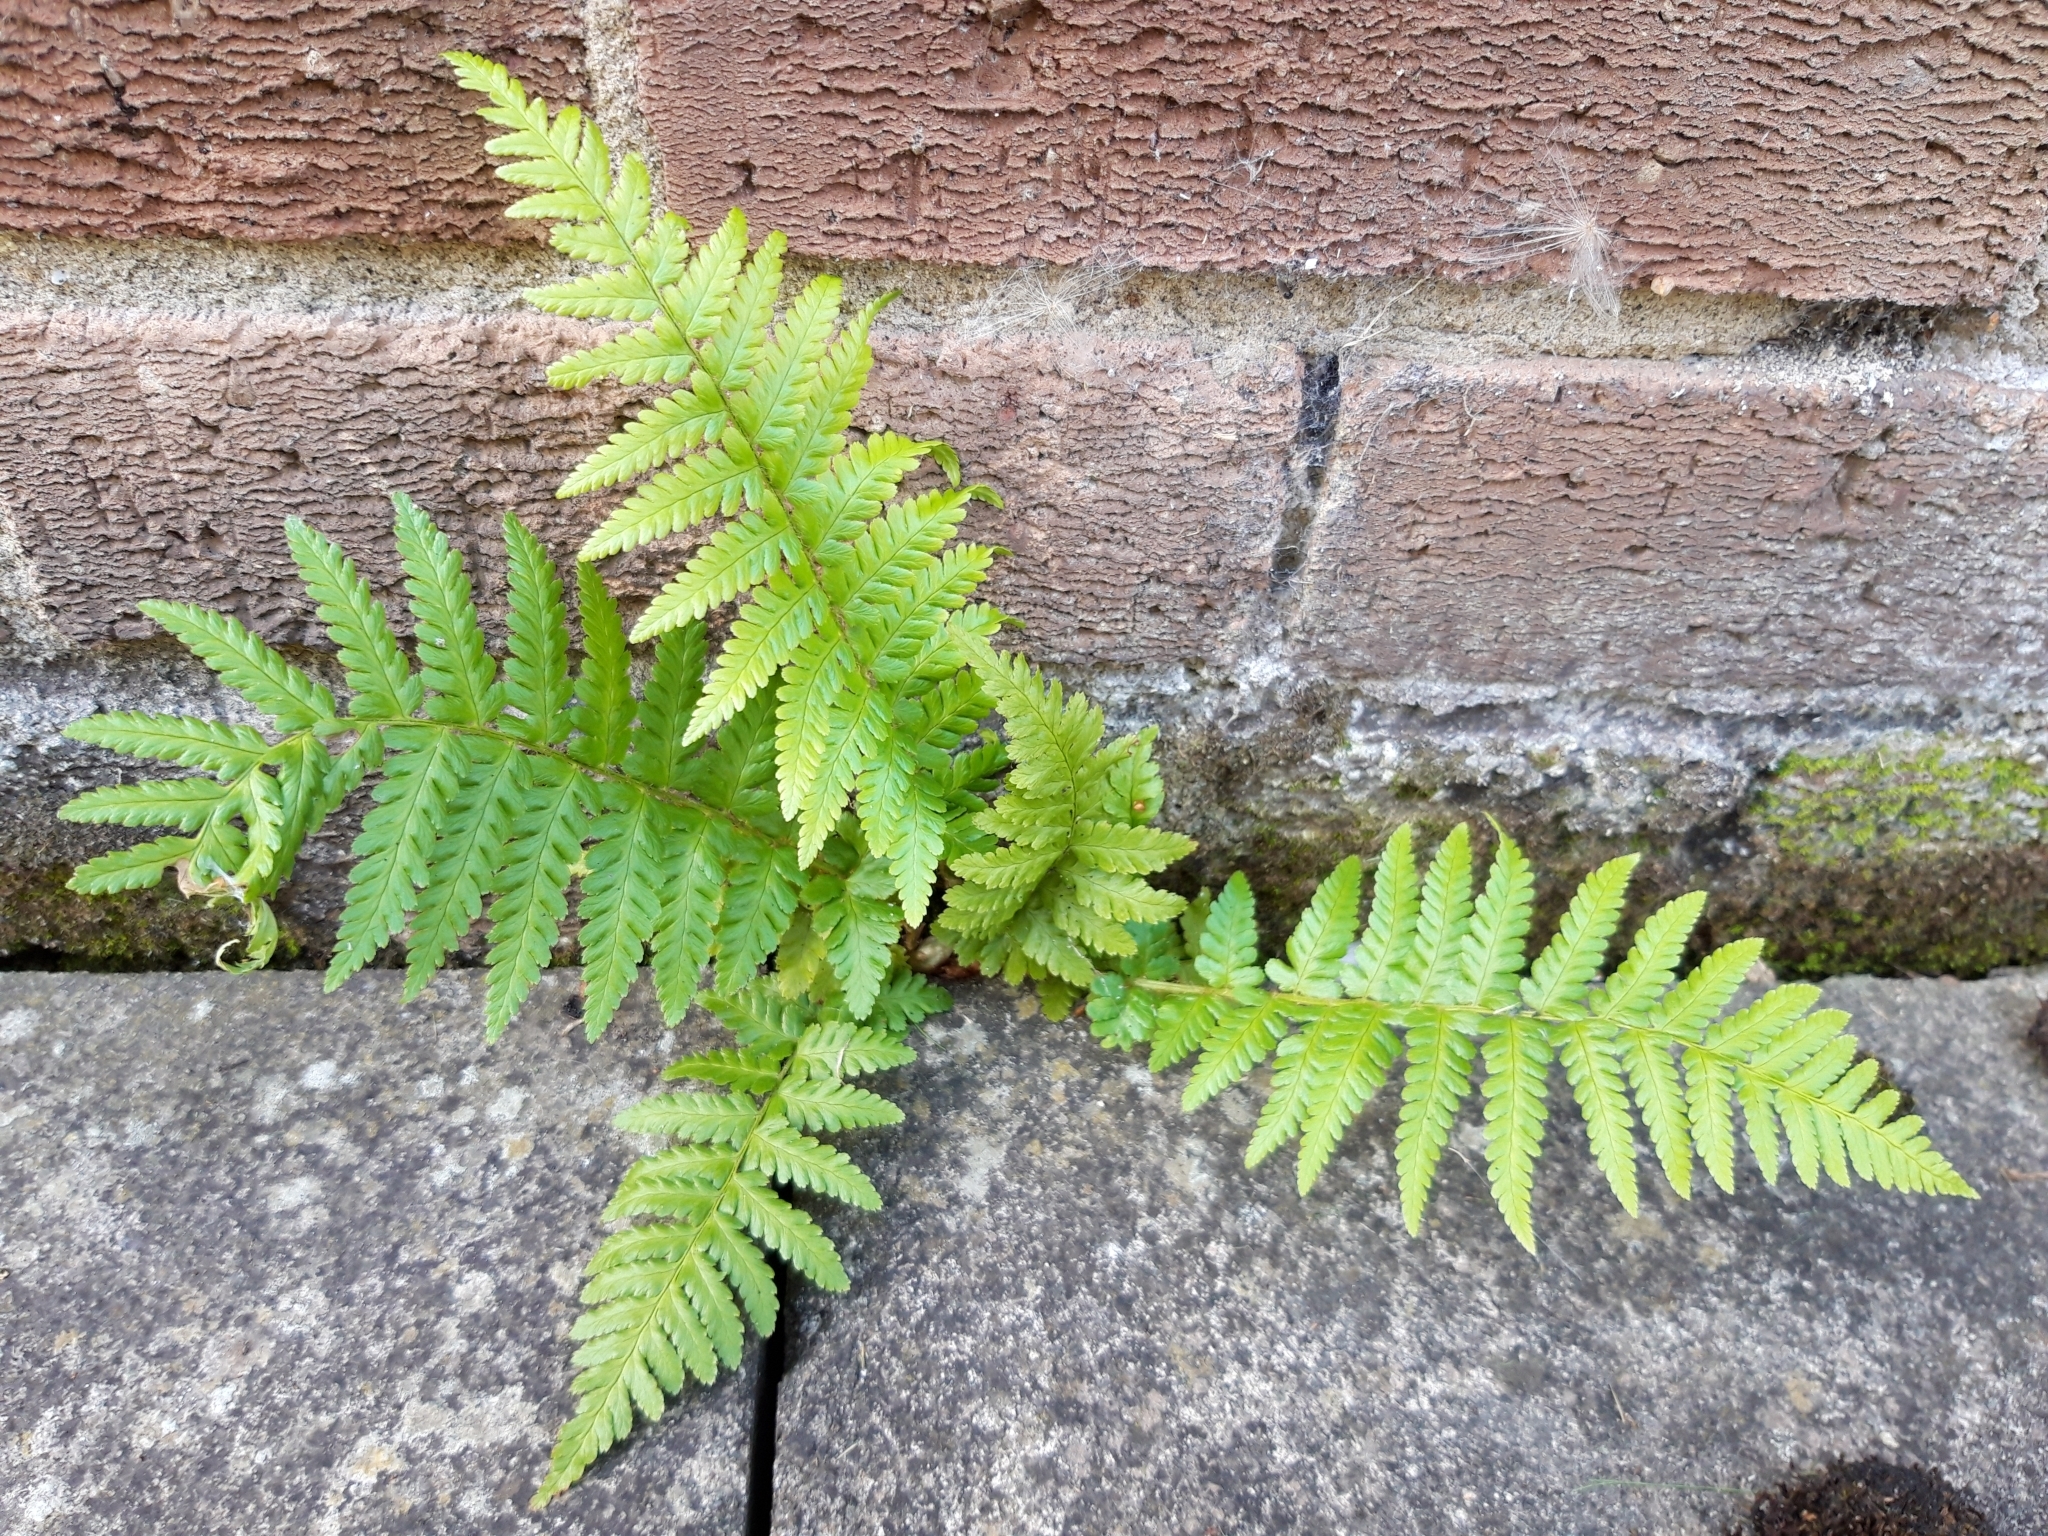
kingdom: Plantae
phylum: Tracheophyta
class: Polypodiopsida
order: Polypodiales
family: Dryopteridaceae
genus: Dryopteris
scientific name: Dryopteris filix-mas
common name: Male fern
